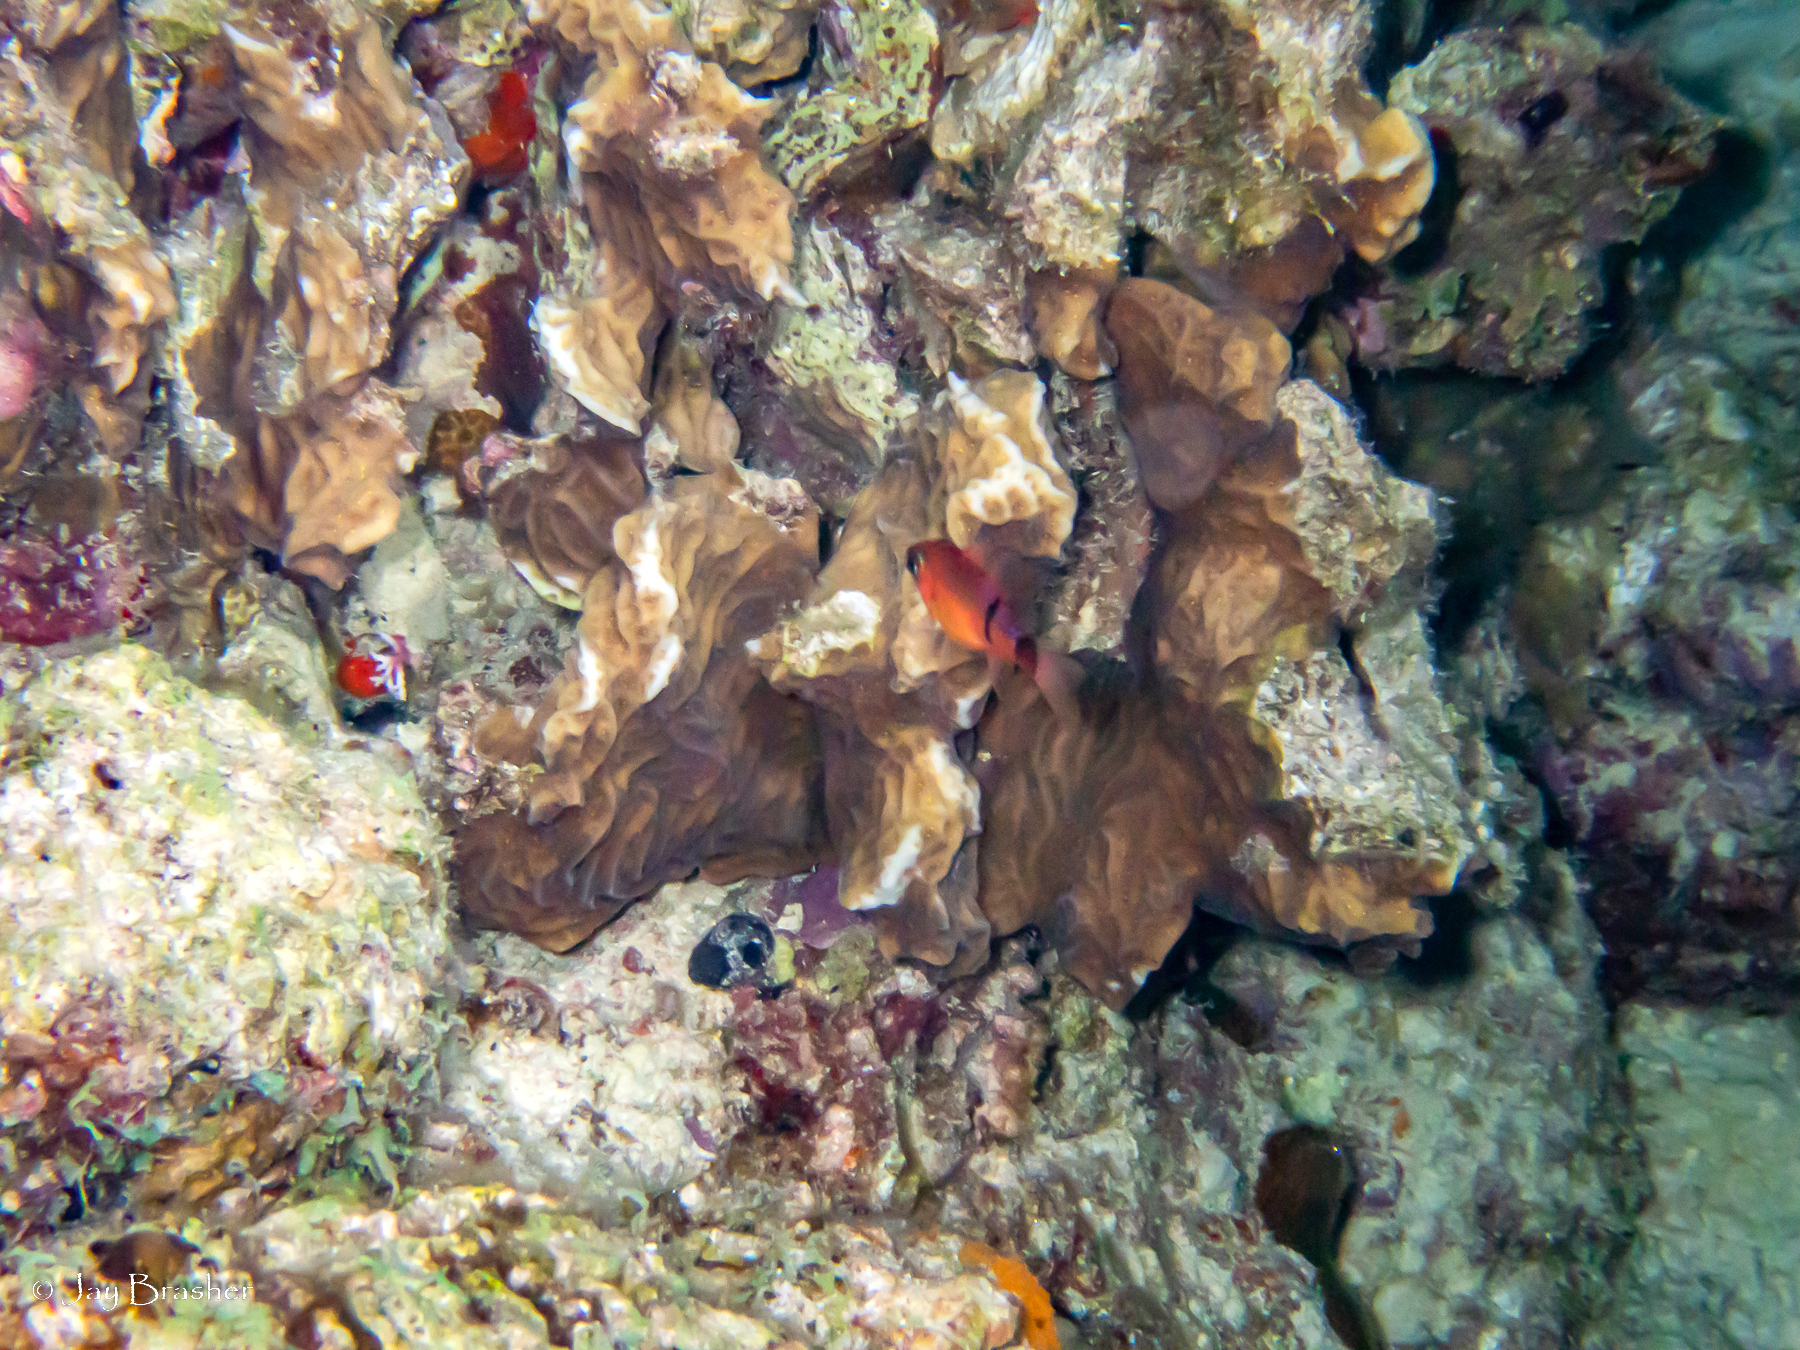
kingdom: Animalia
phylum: Chordata
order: Perciformes
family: Apogonidae
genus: Apogon
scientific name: Apogon townsendi
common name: Belted cardinalfish
